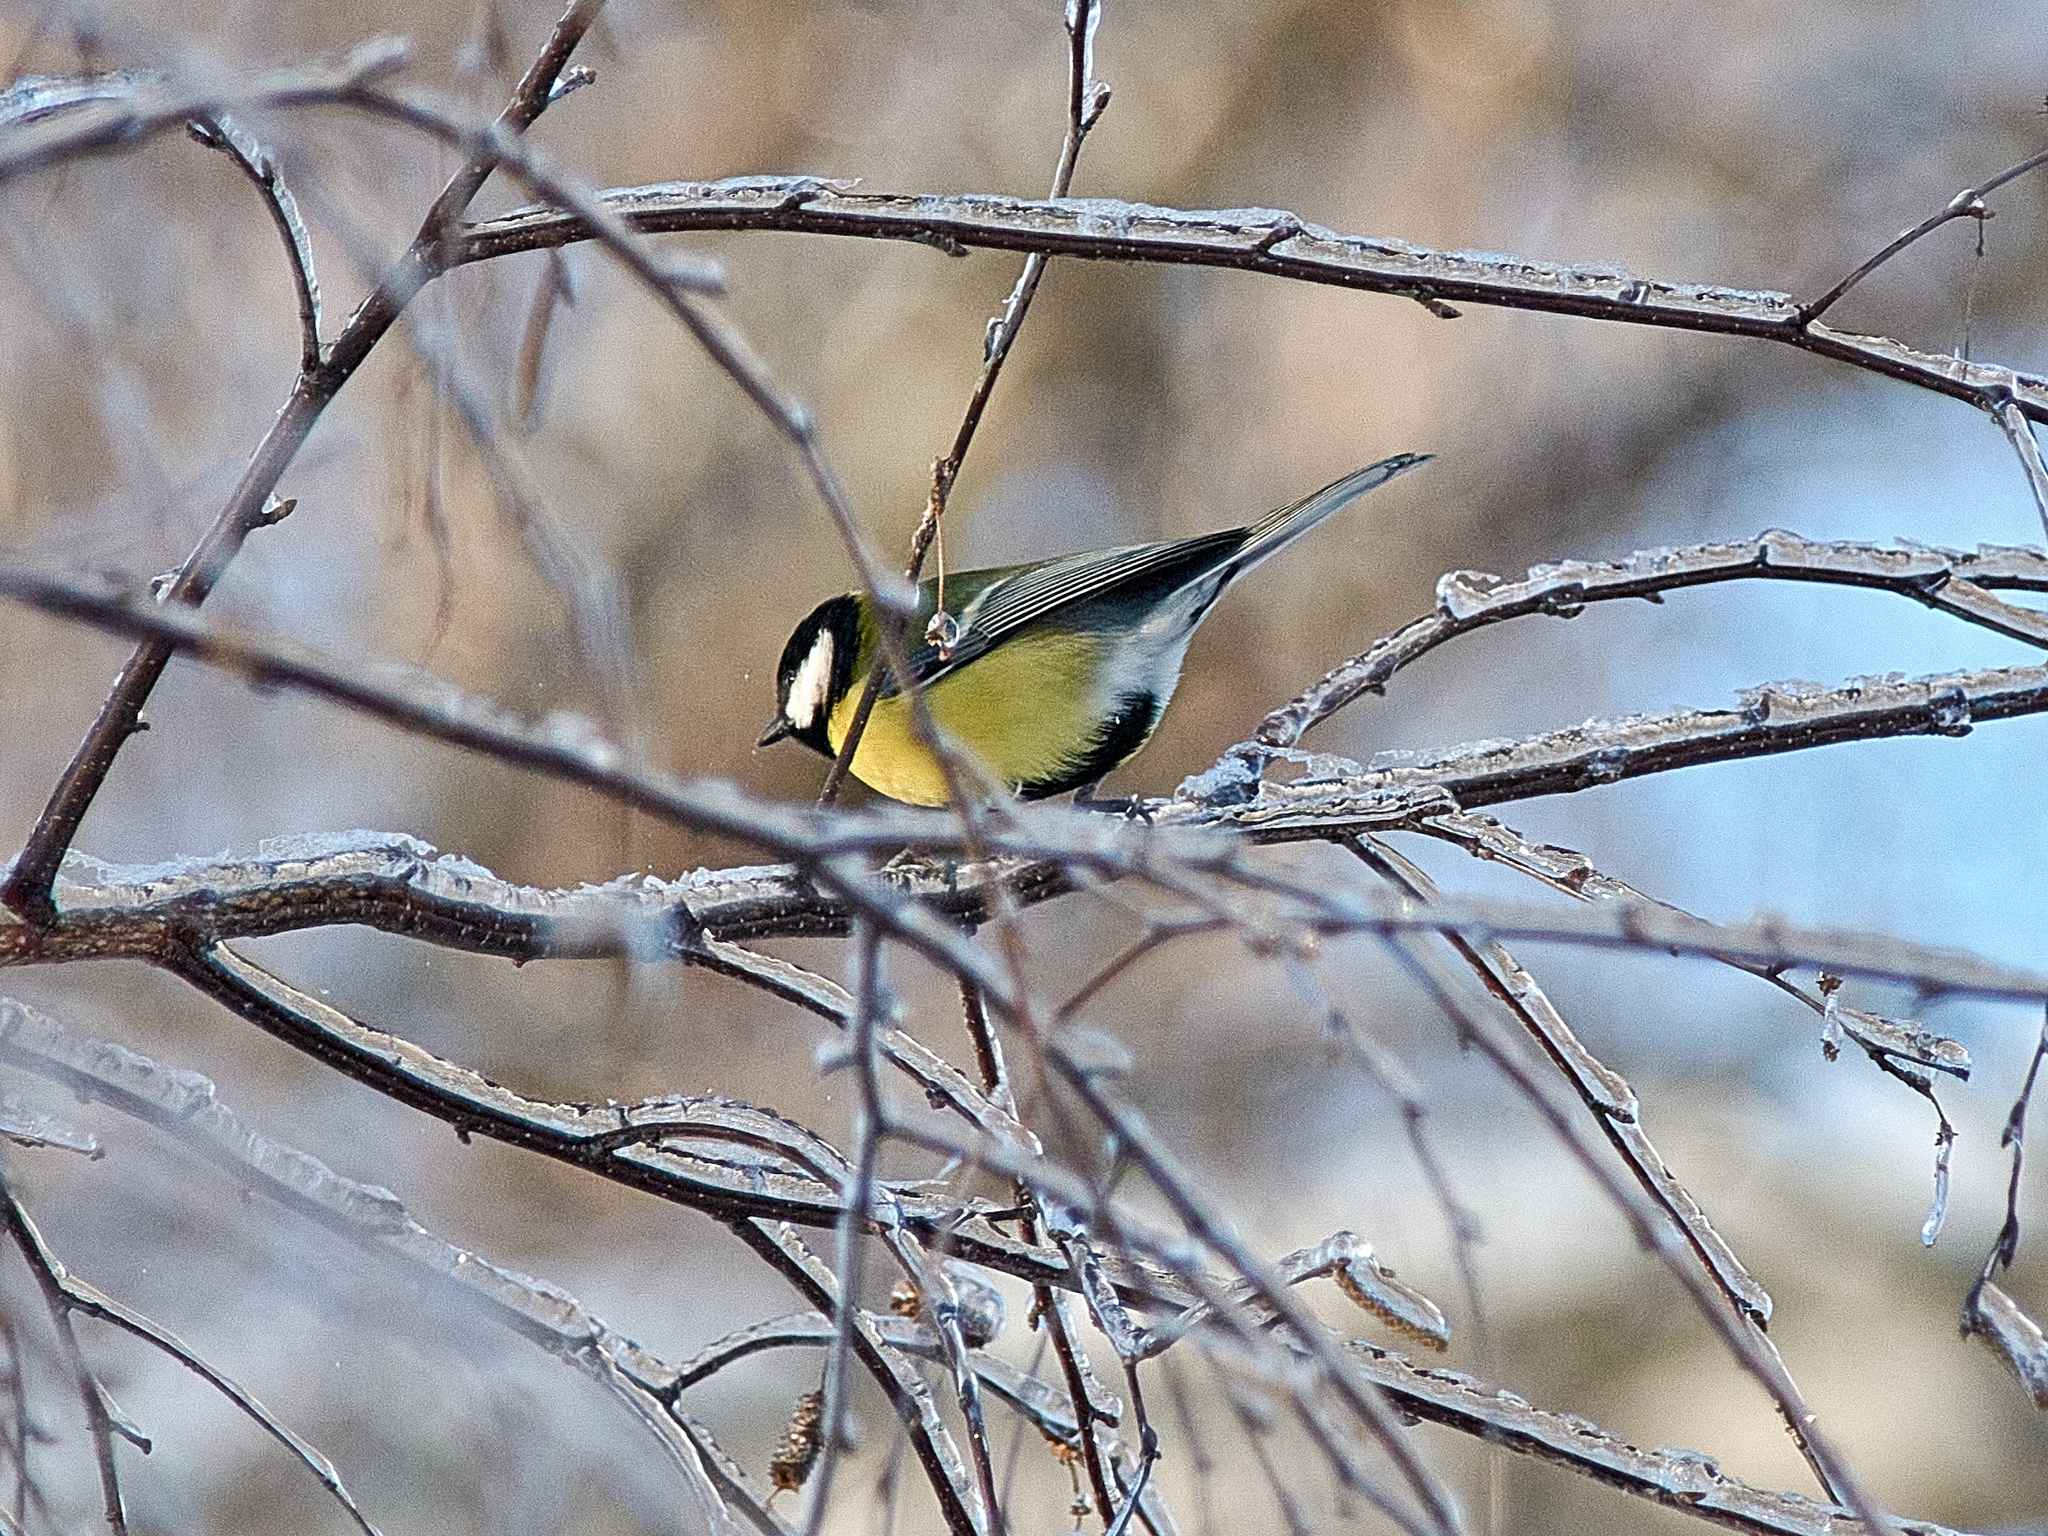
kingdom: Animalia
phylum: Chordata
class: Aves
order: Passeriformes
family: Paridae
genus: Parus
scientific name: Parus major
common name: Great tit
